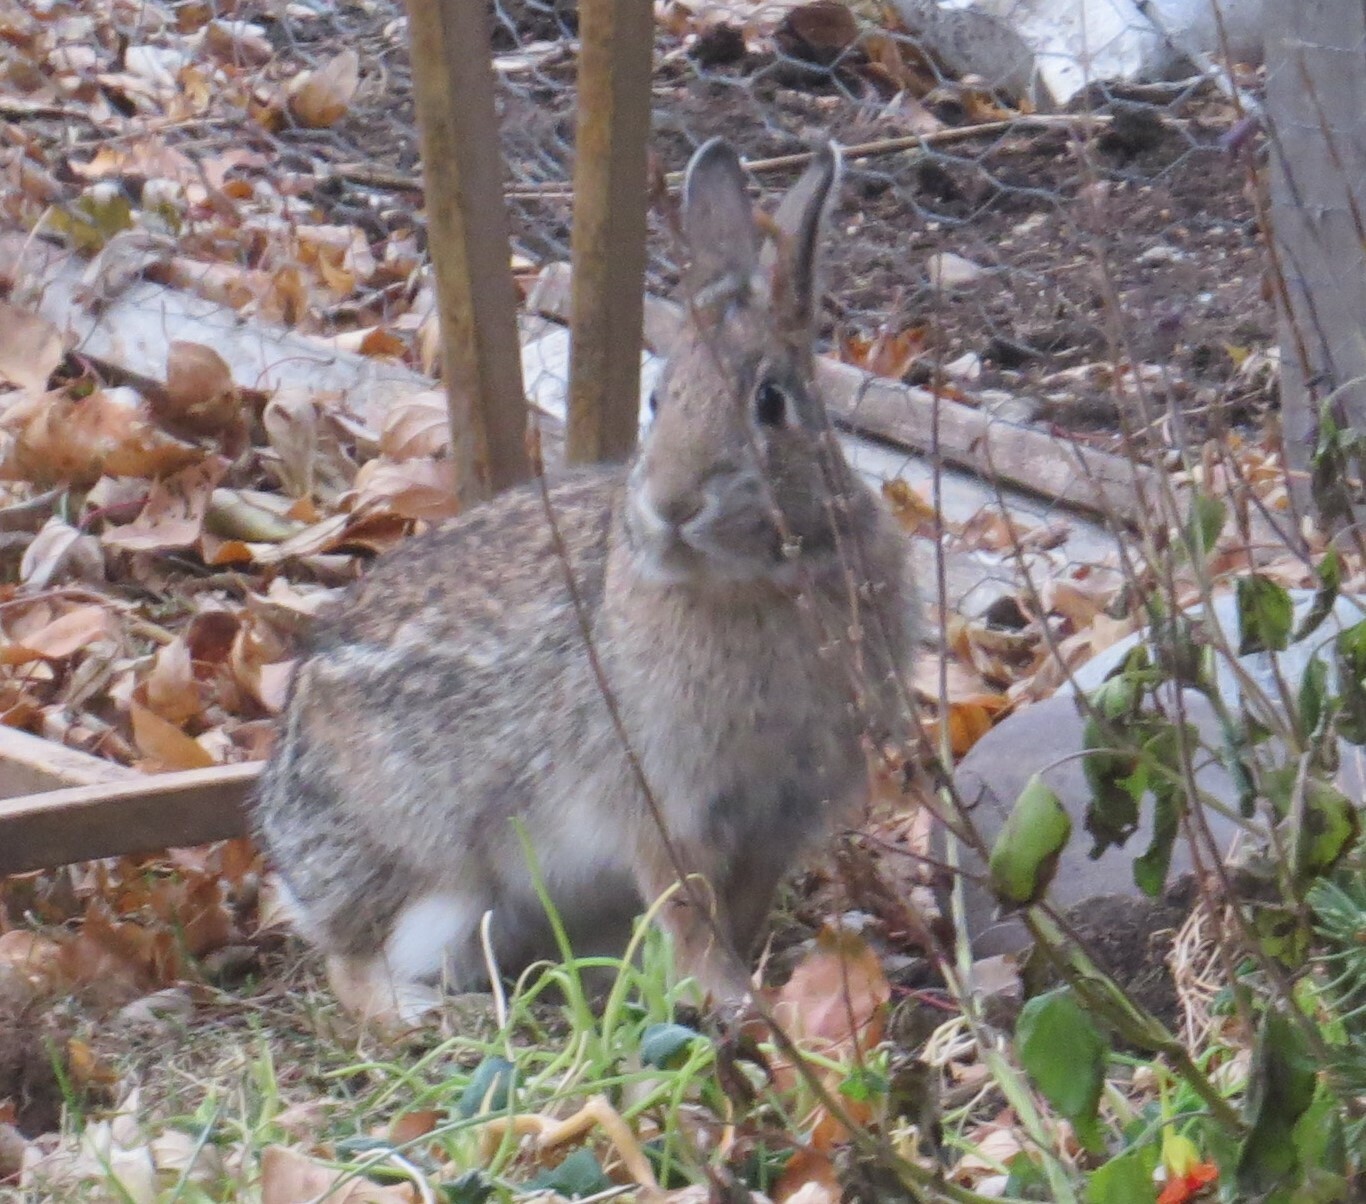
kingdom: Animalia
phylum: Chordata
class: Mammalia
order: Lagomorpha
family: Leporidae
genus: Sylvilagus
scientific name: Sylvilagus floridanus
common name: Eastern cottontail
